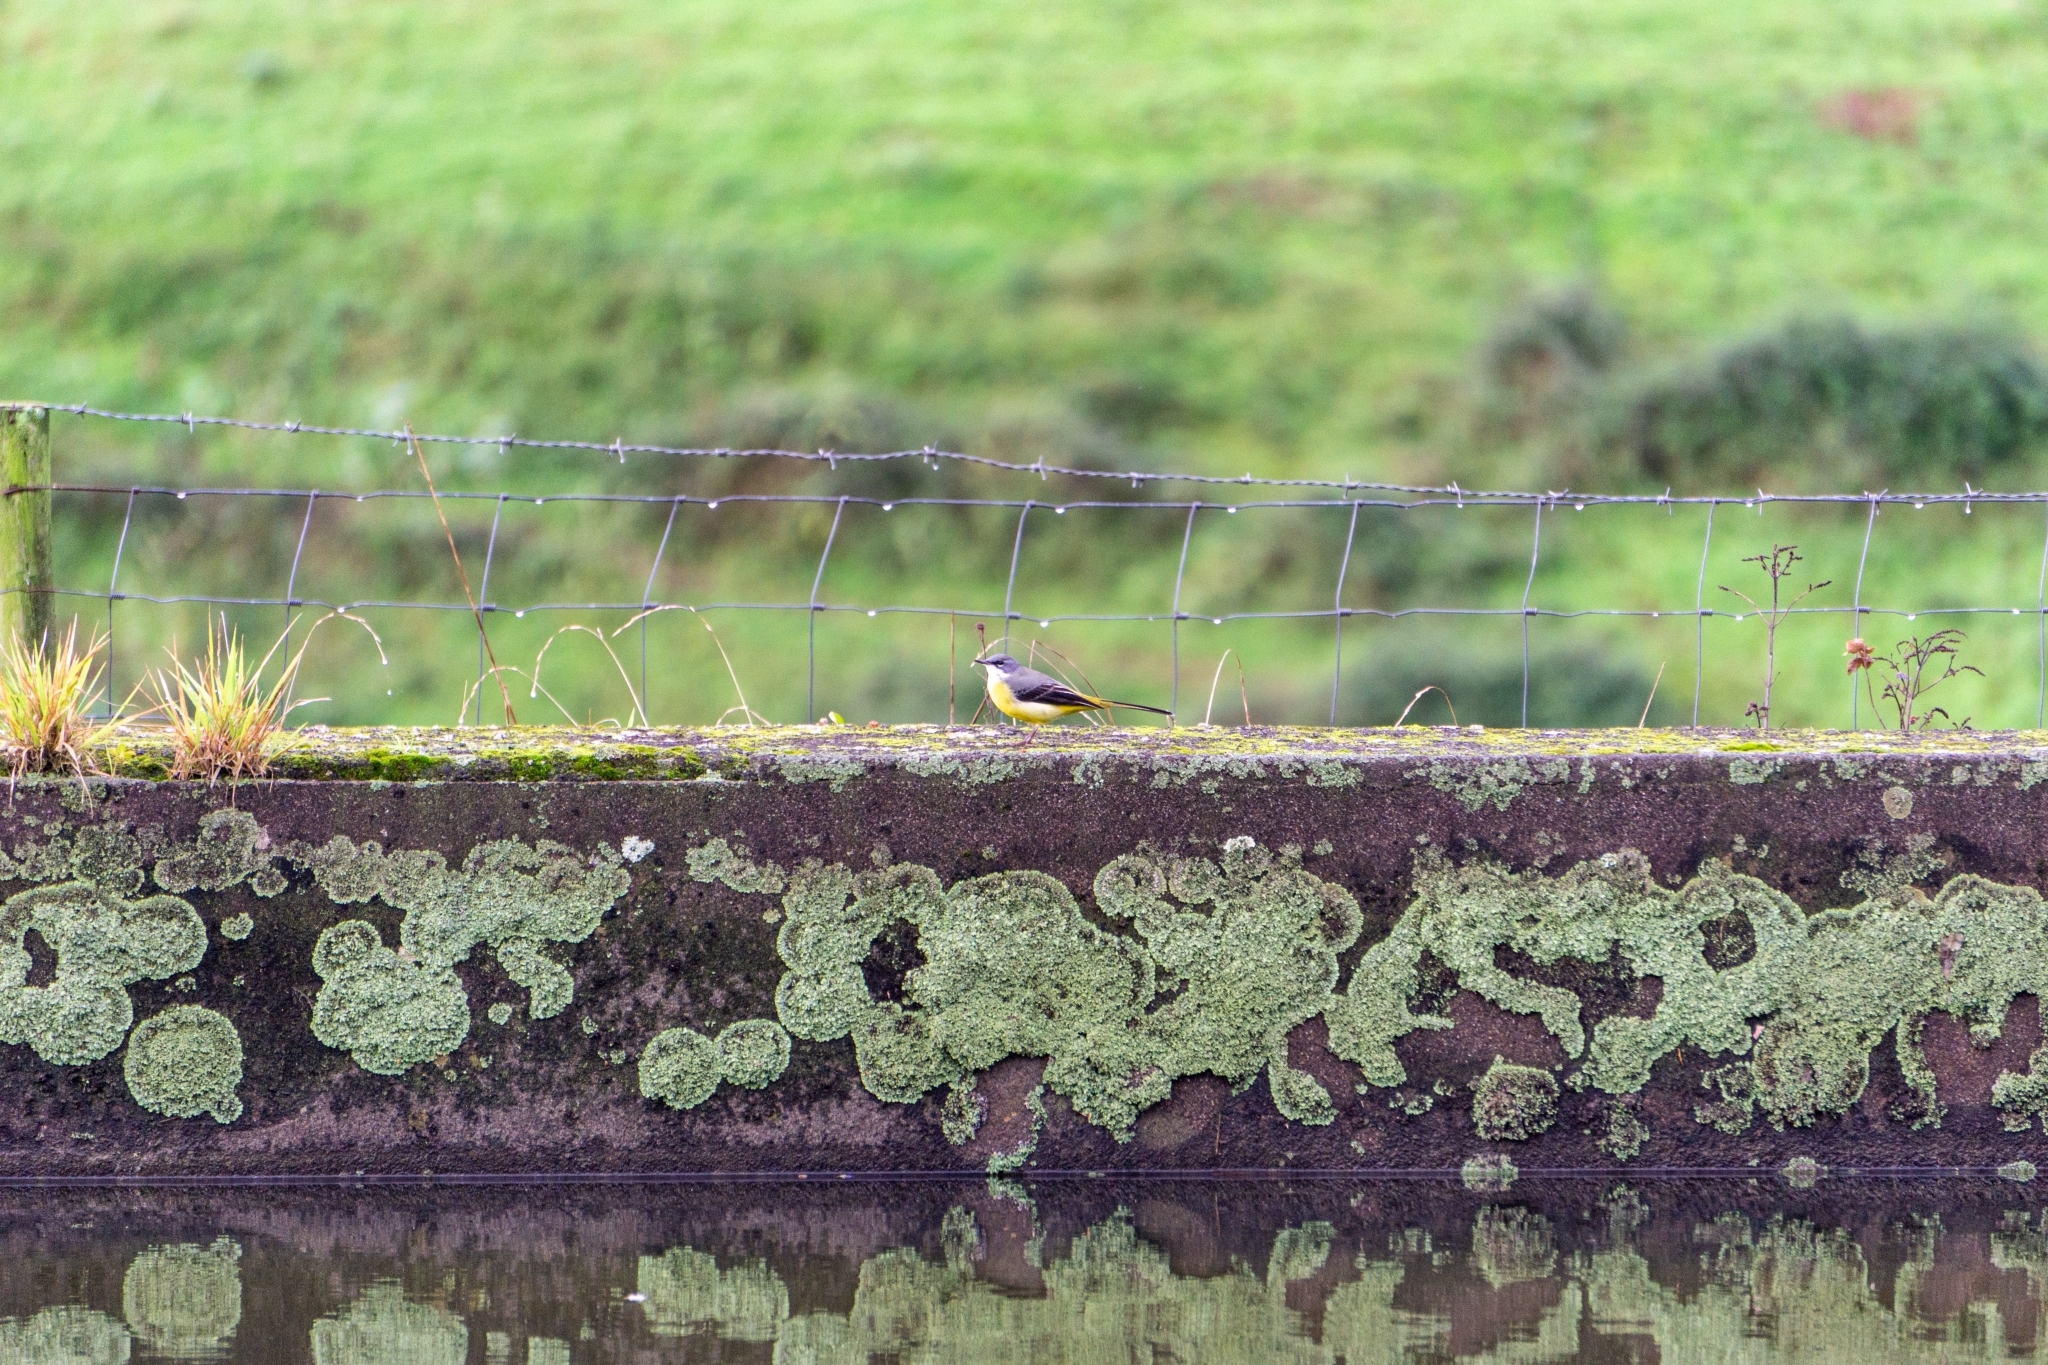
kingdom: Animalia
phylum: Chordata
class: Aves
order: Passeriformes
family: Motacillidae
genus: Motacilla
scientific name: Motacilla cinerea
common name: Grey wagtail
